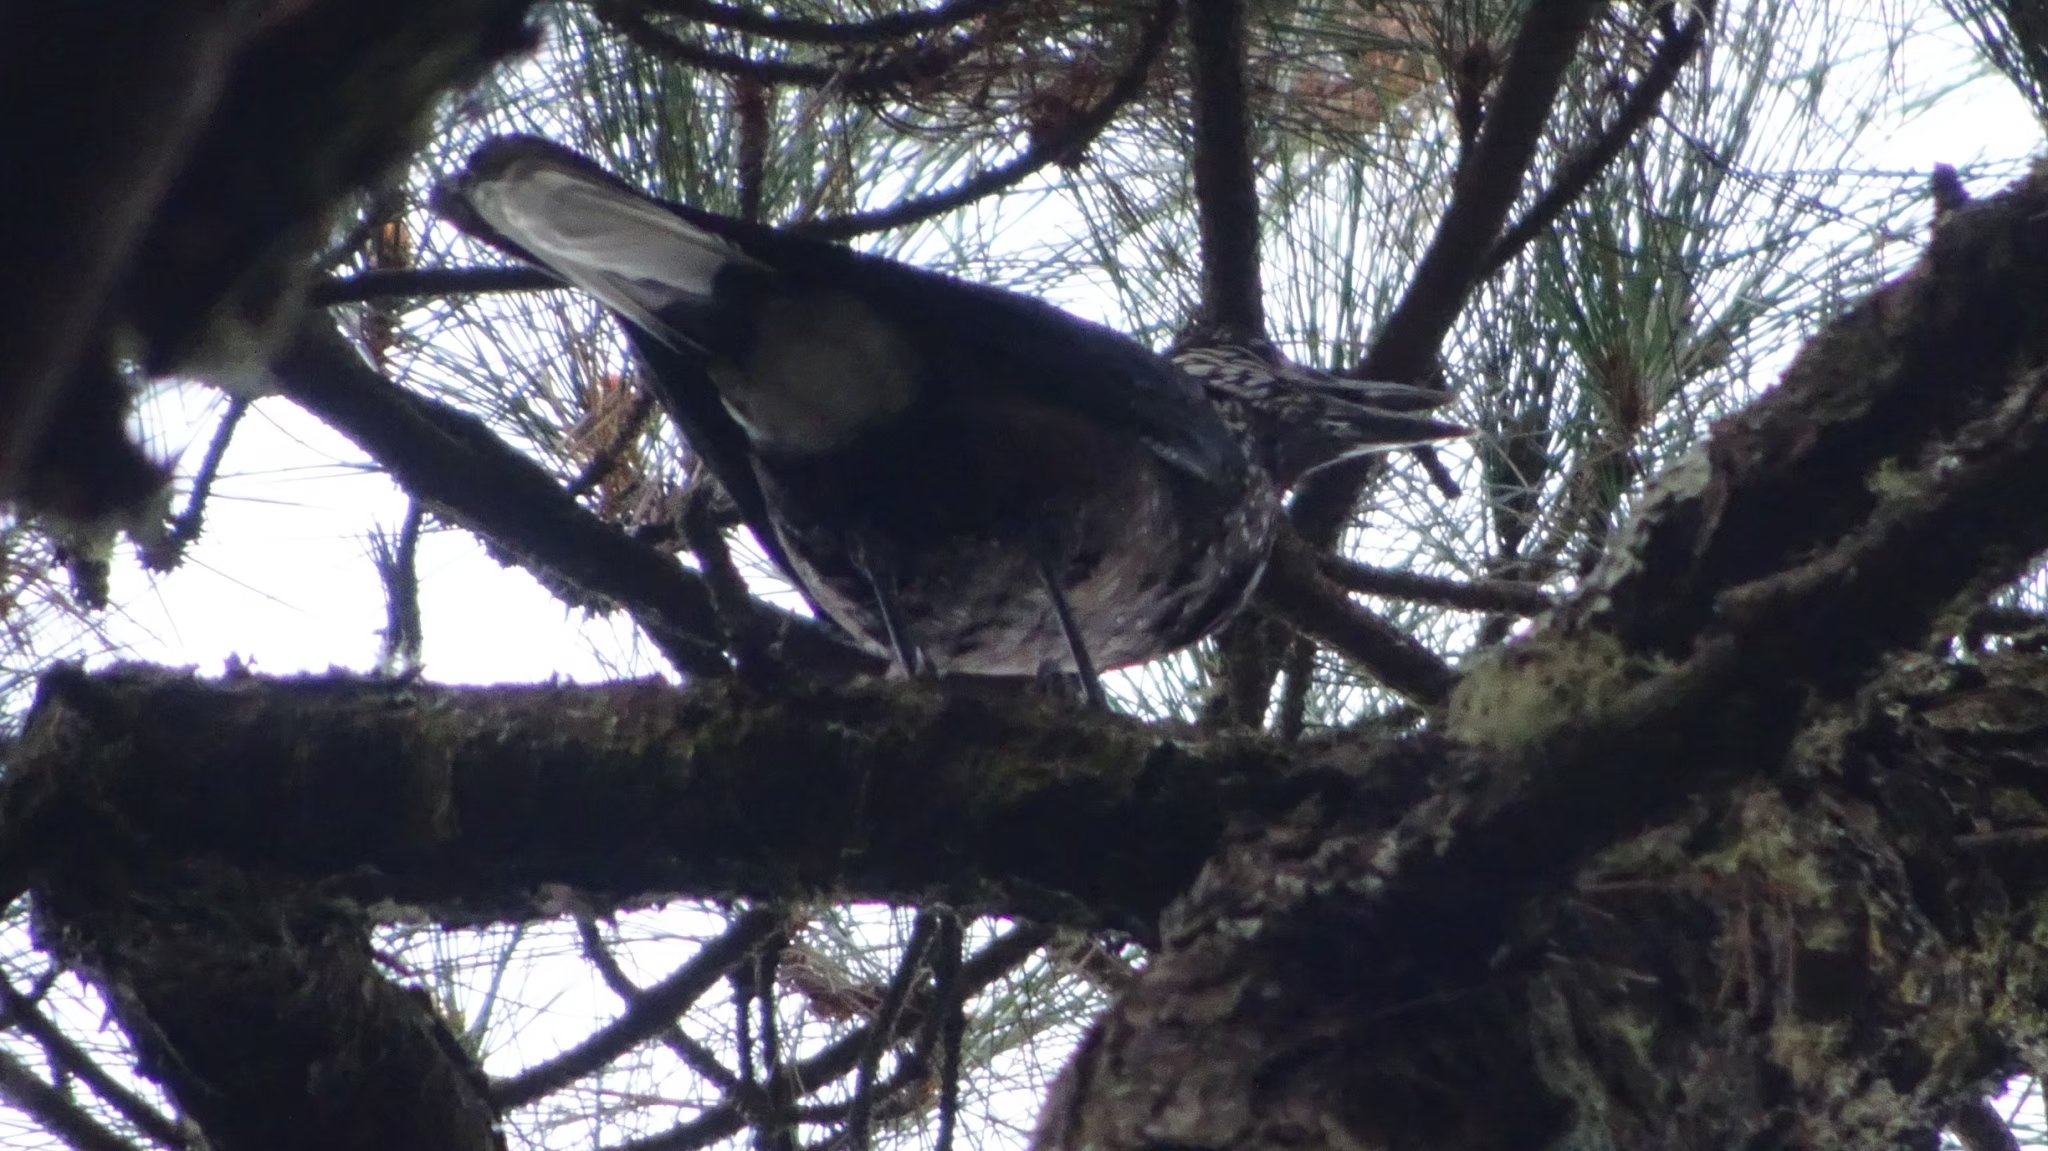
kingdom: Animalia
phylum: Chordata
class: Aves
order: Passeriformes
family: Corvidae
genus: Nucifraga
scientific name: Nucifraga caryocatactes
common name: Spotted nutcracker
